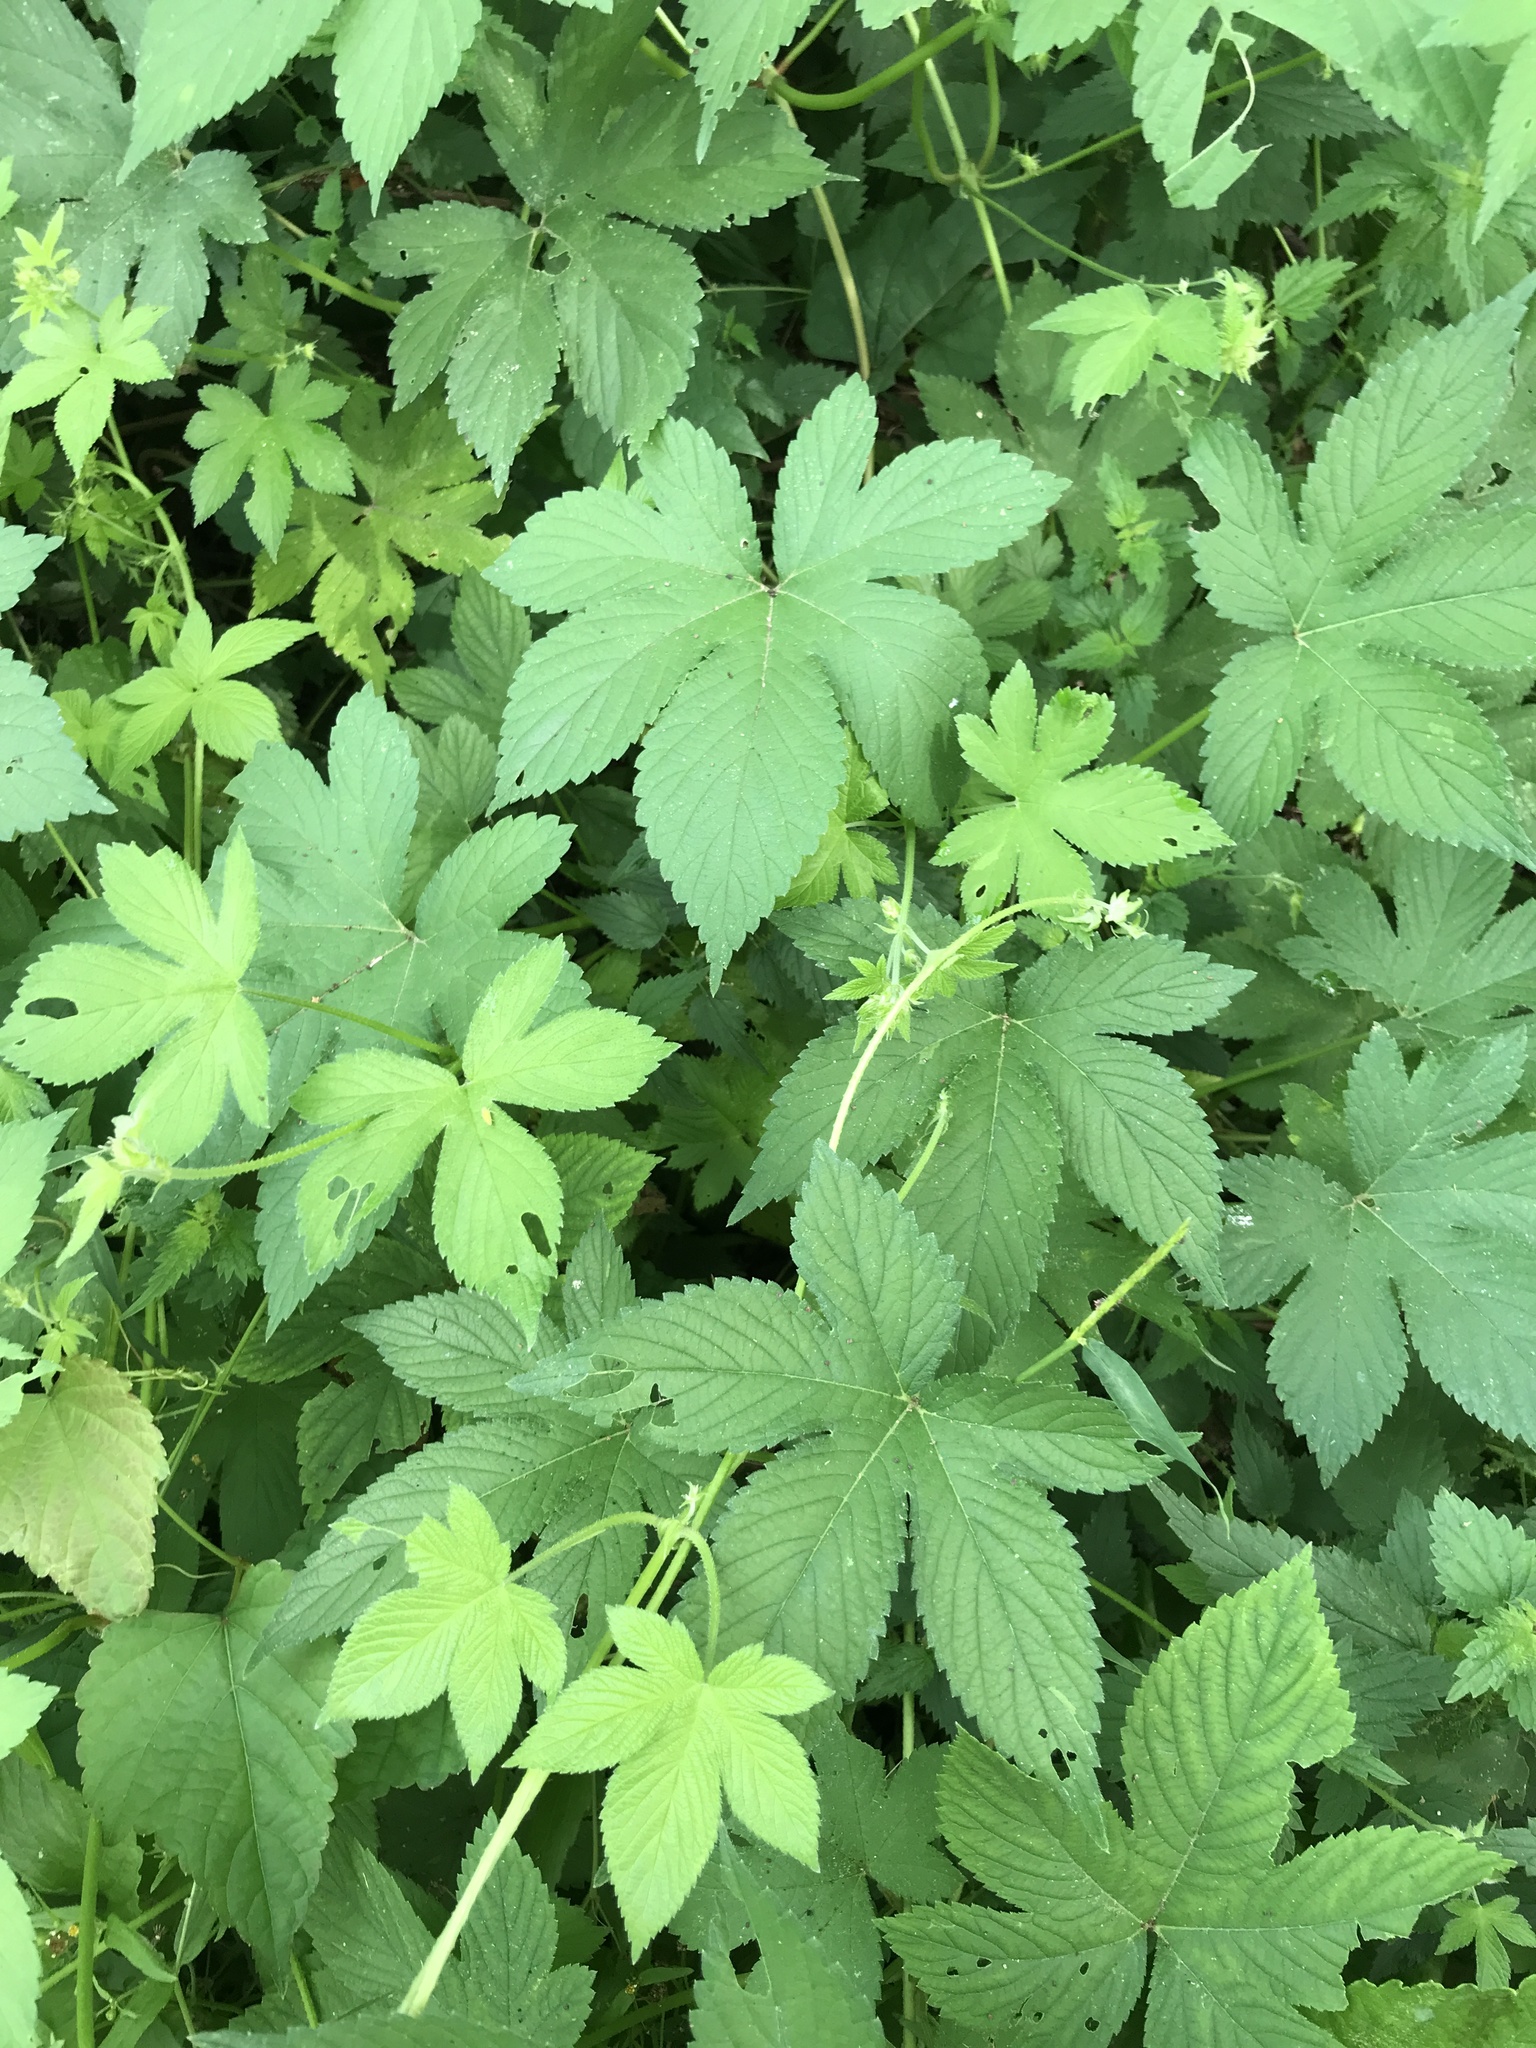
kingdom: Plantae
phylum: Tracheophyta
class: Magnoliopsida
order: Rosales
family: Cannabaceae
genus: Humulus
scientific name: Humulus scandens
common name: Japanese hop
